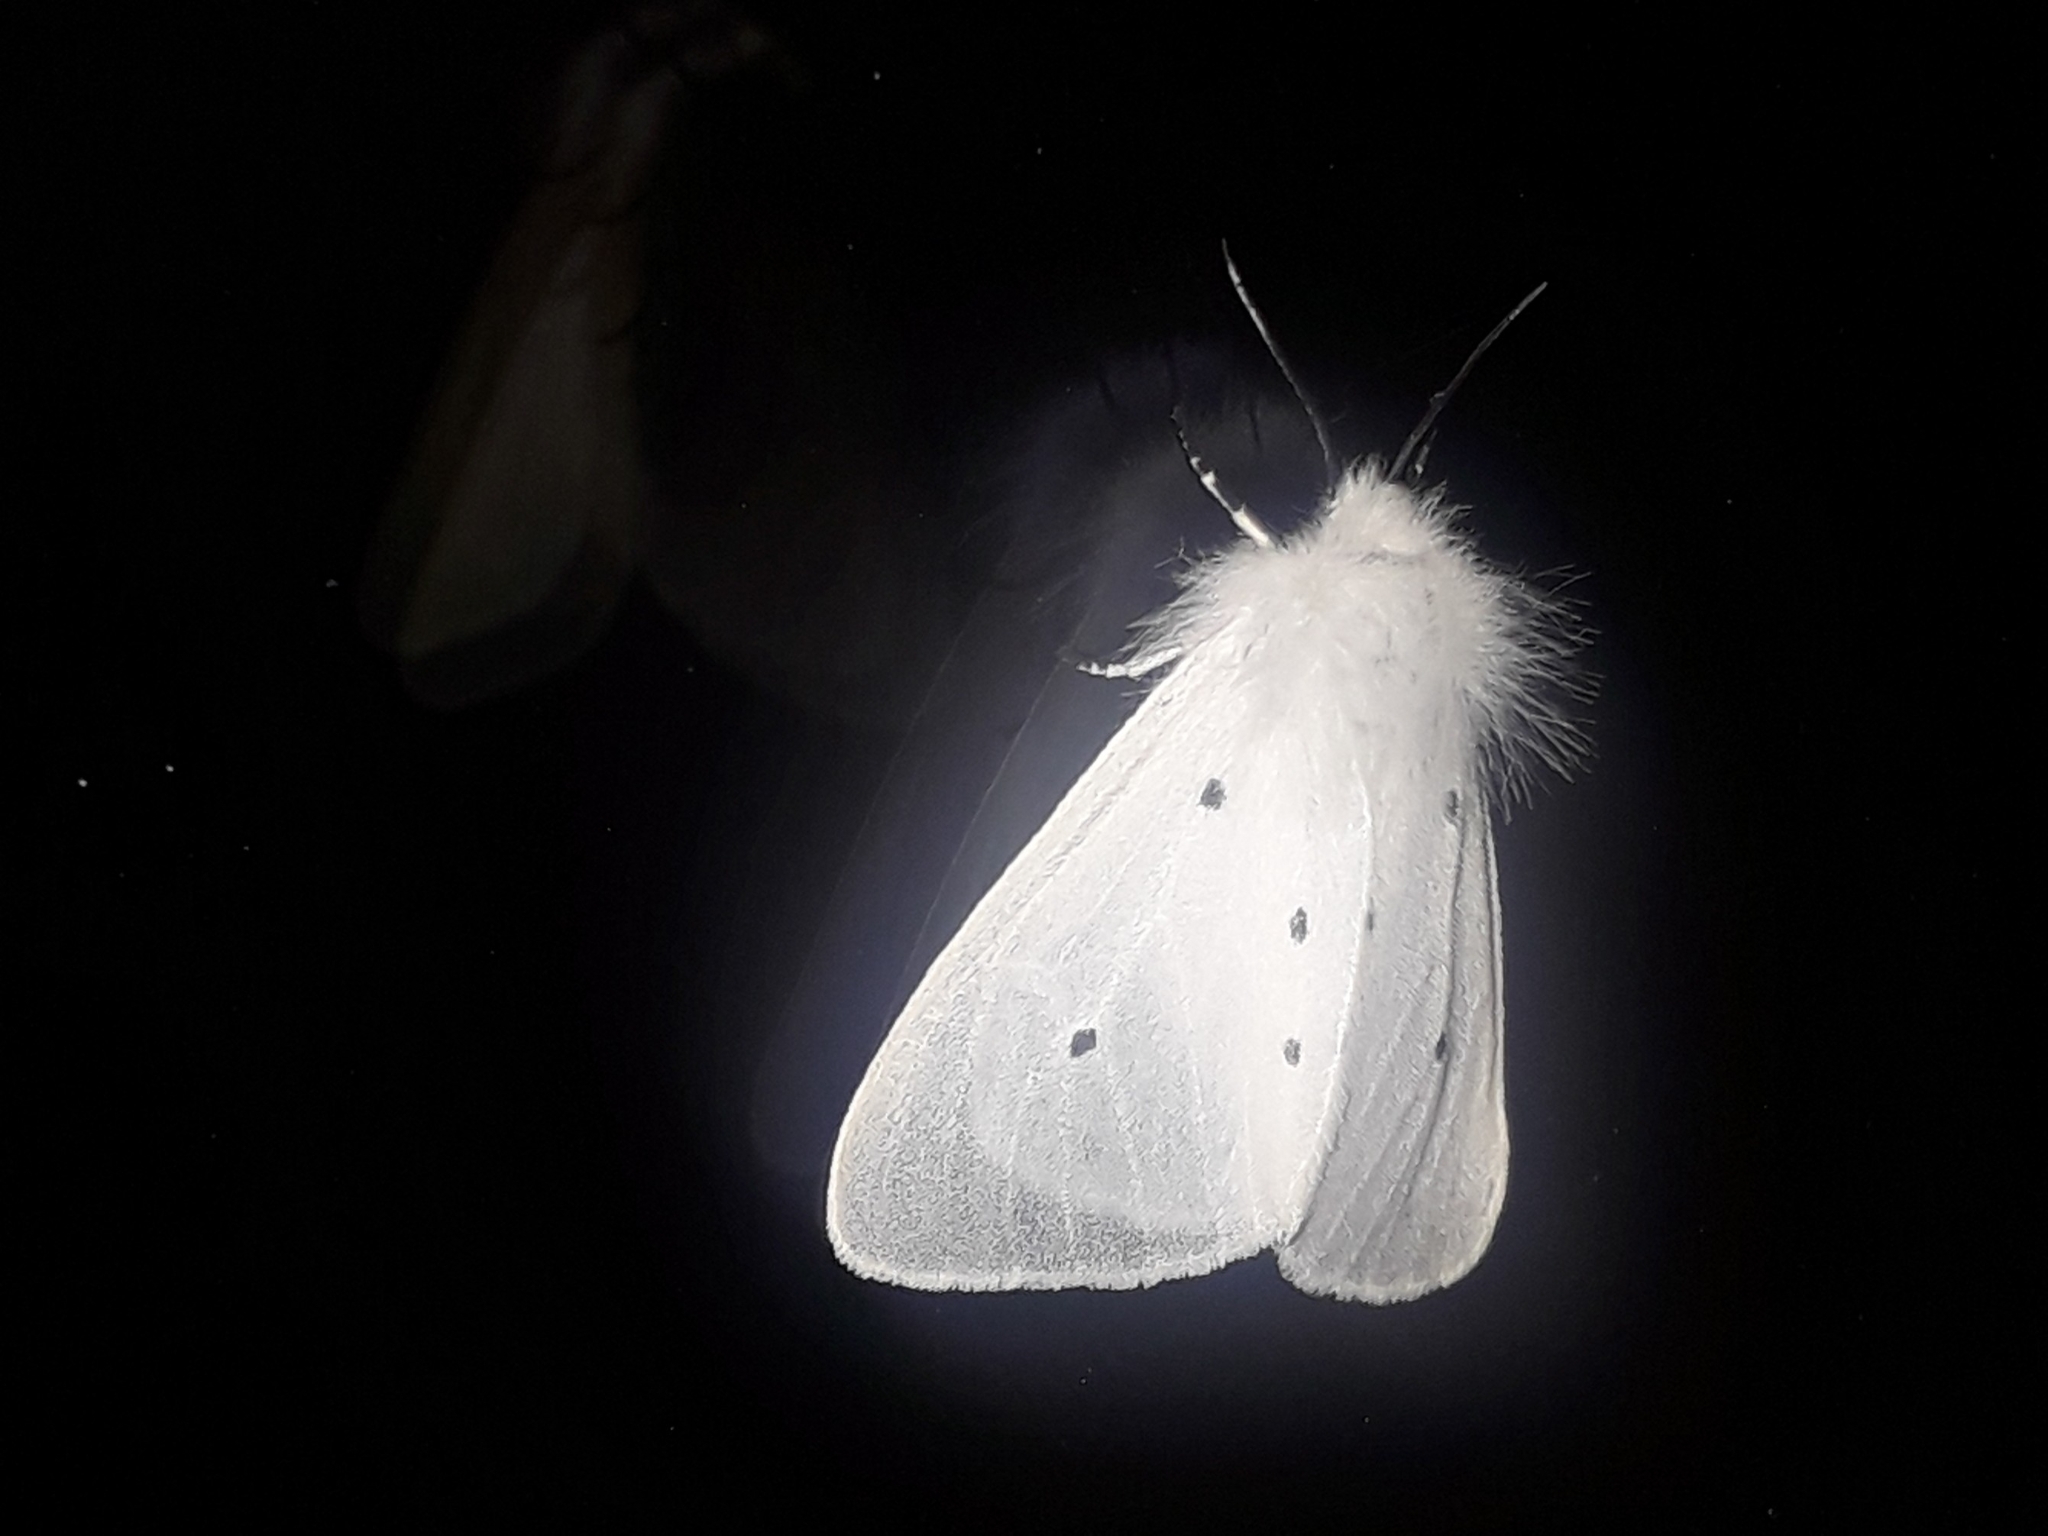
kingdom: Animalia
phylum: Arthropoda
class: Insecta
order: Lepidoptera
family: Erebidae
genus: Diaphora
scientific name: Diaphora mendica
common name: Muslin moth
